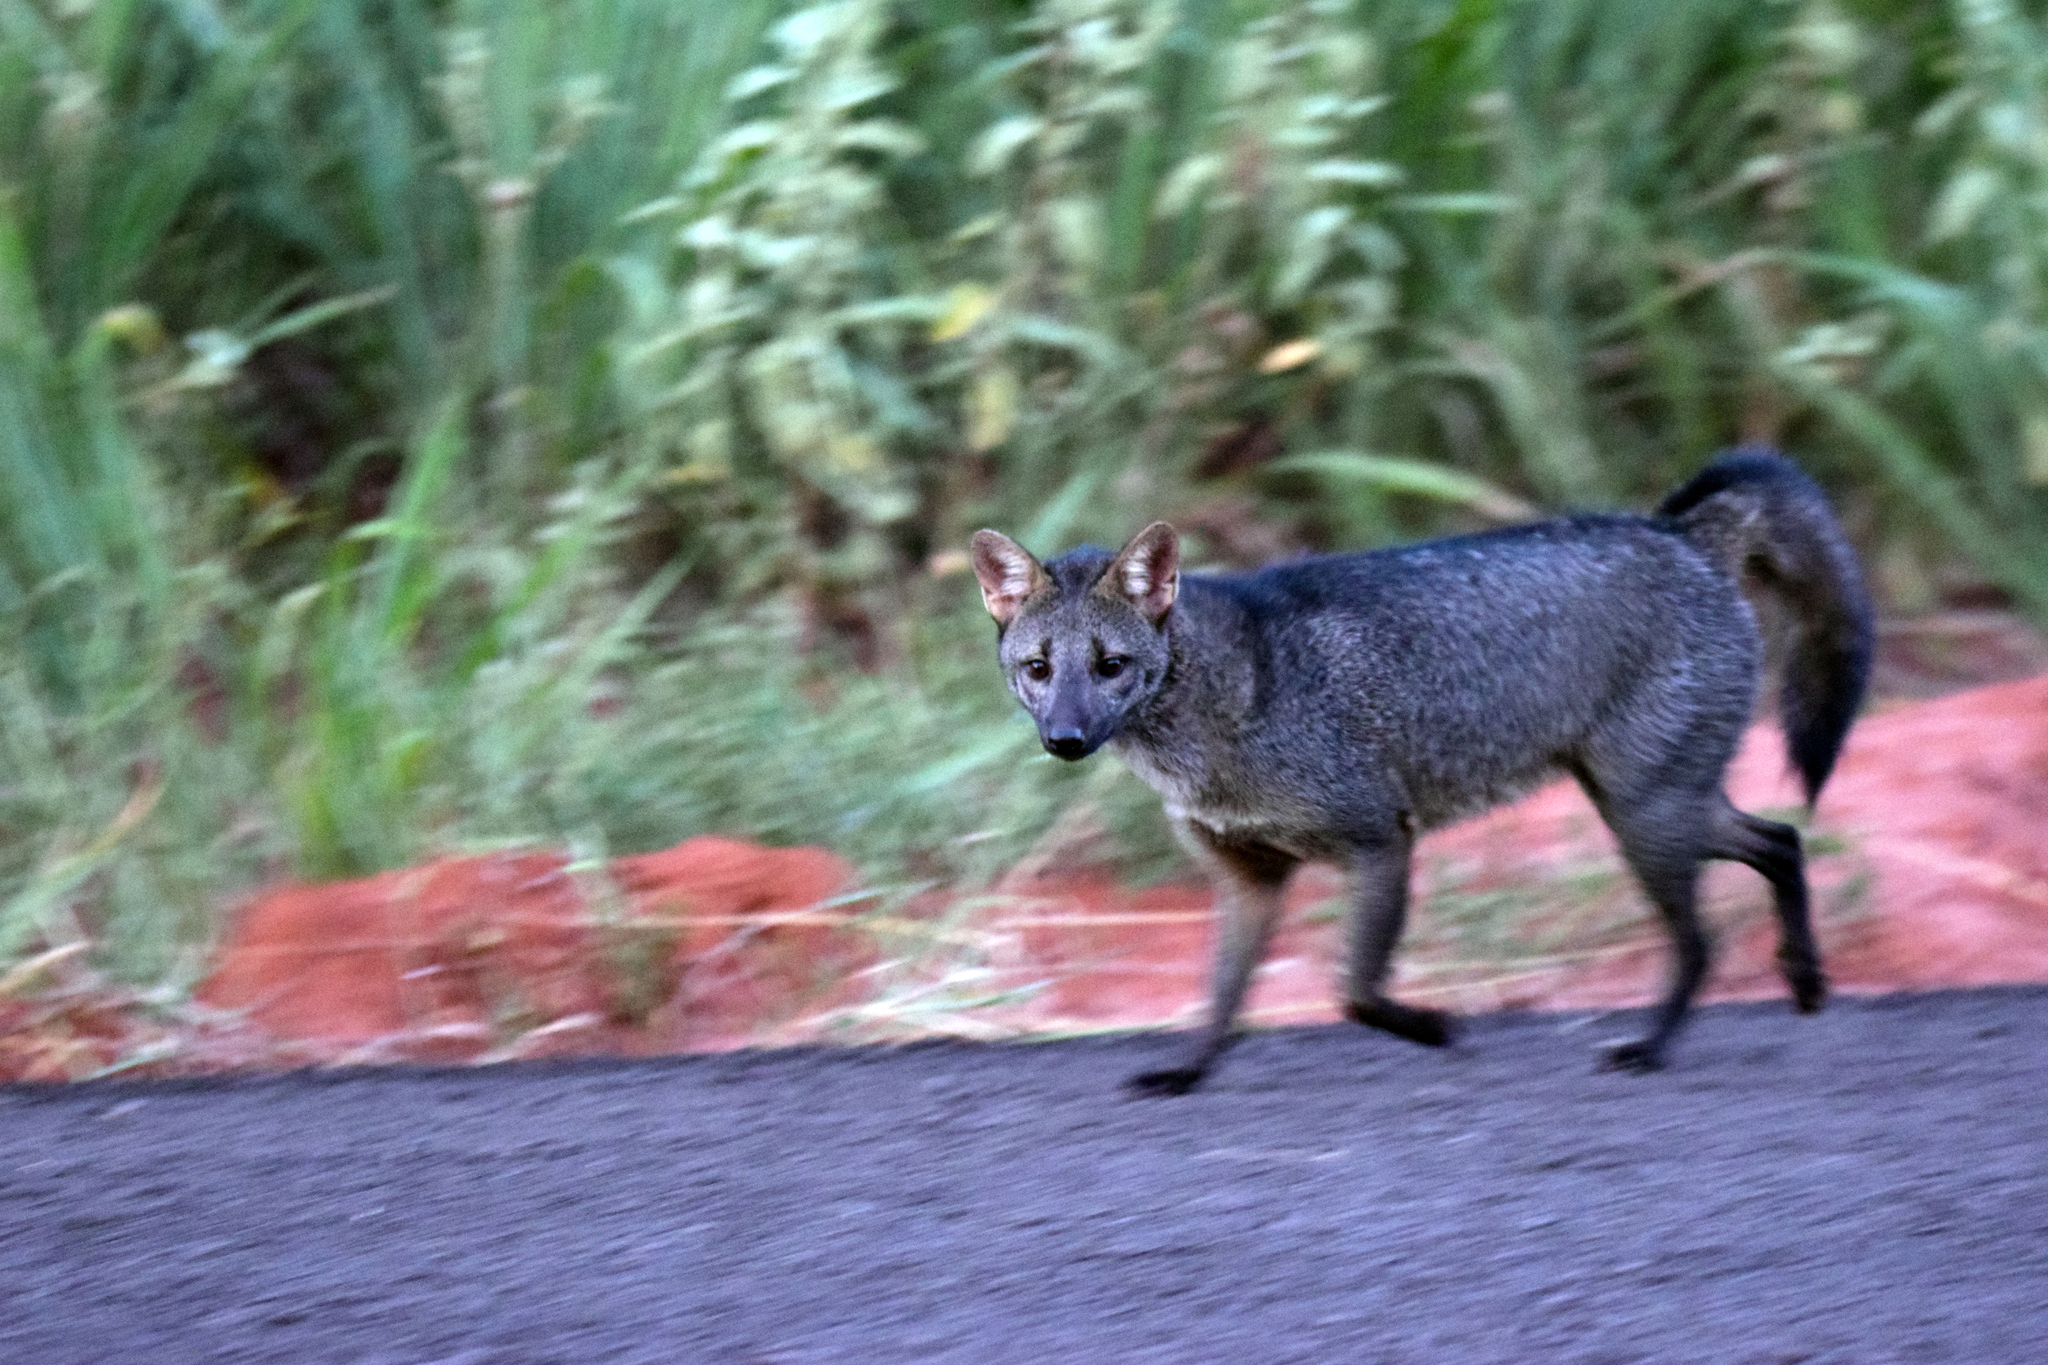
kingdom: Animalia
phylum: Chordata
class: Mammalia
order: Carnivora
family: Canidae
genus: Cerdocyon
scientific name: Cerdocyon thous
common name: Crab-eating fox
